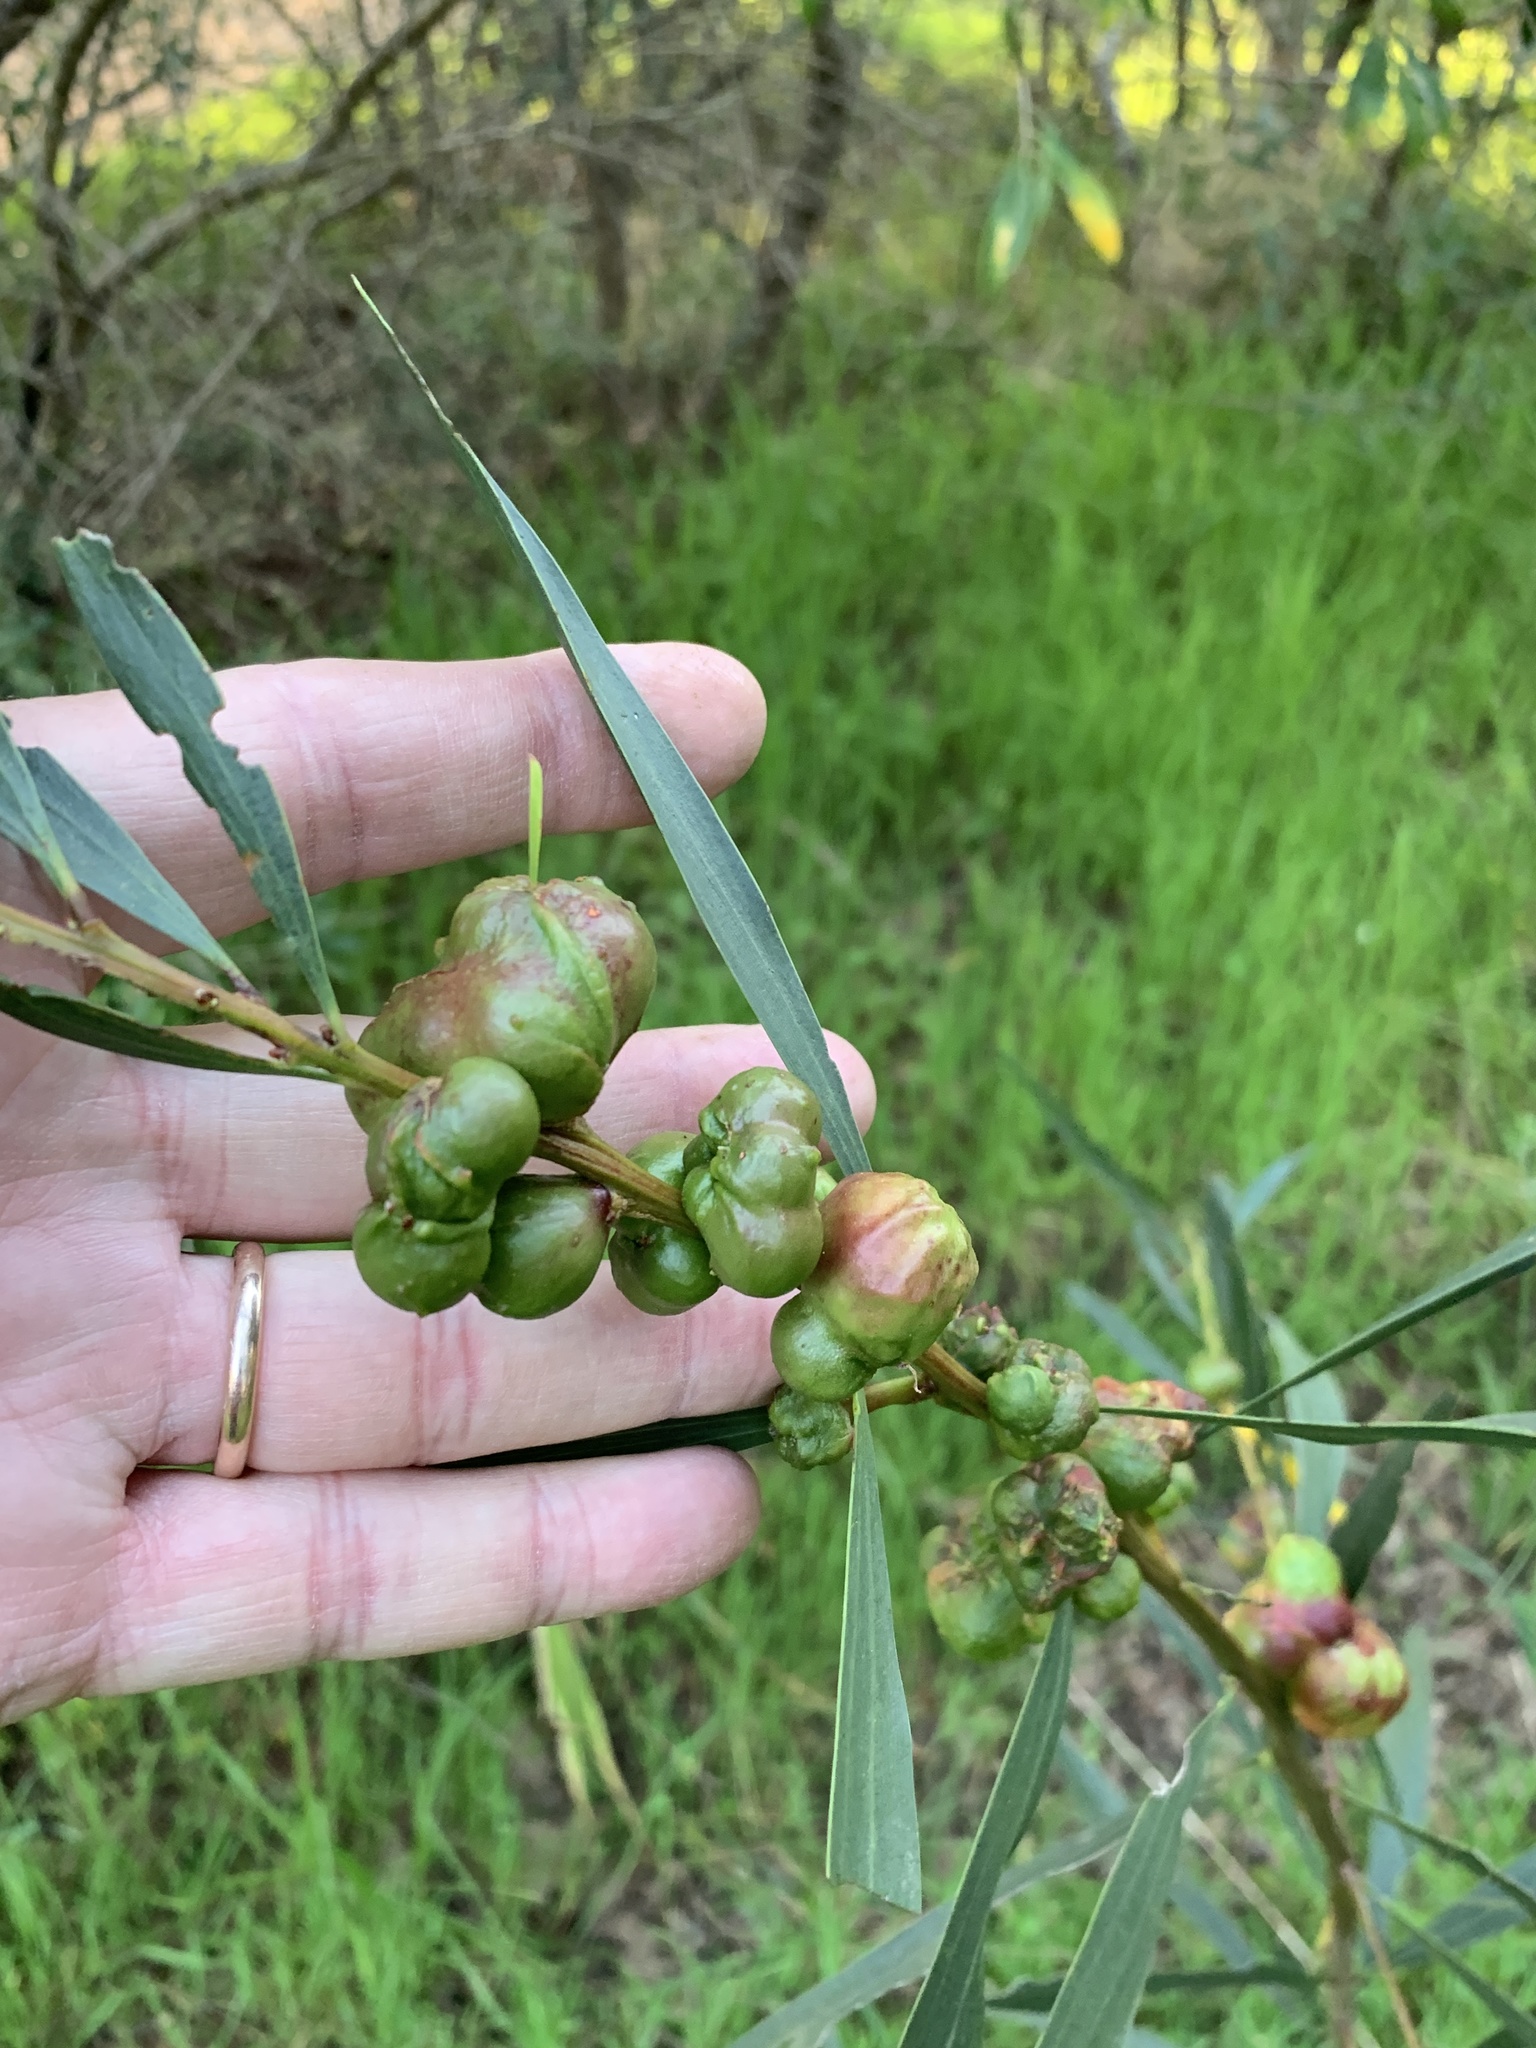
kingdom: Plantae
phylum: Tracheophyta
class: Magnoliopsida
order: Fabales
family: Fabaceae
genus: Acacia
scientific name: Acacia longifolia
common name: Sydney golden wattle
